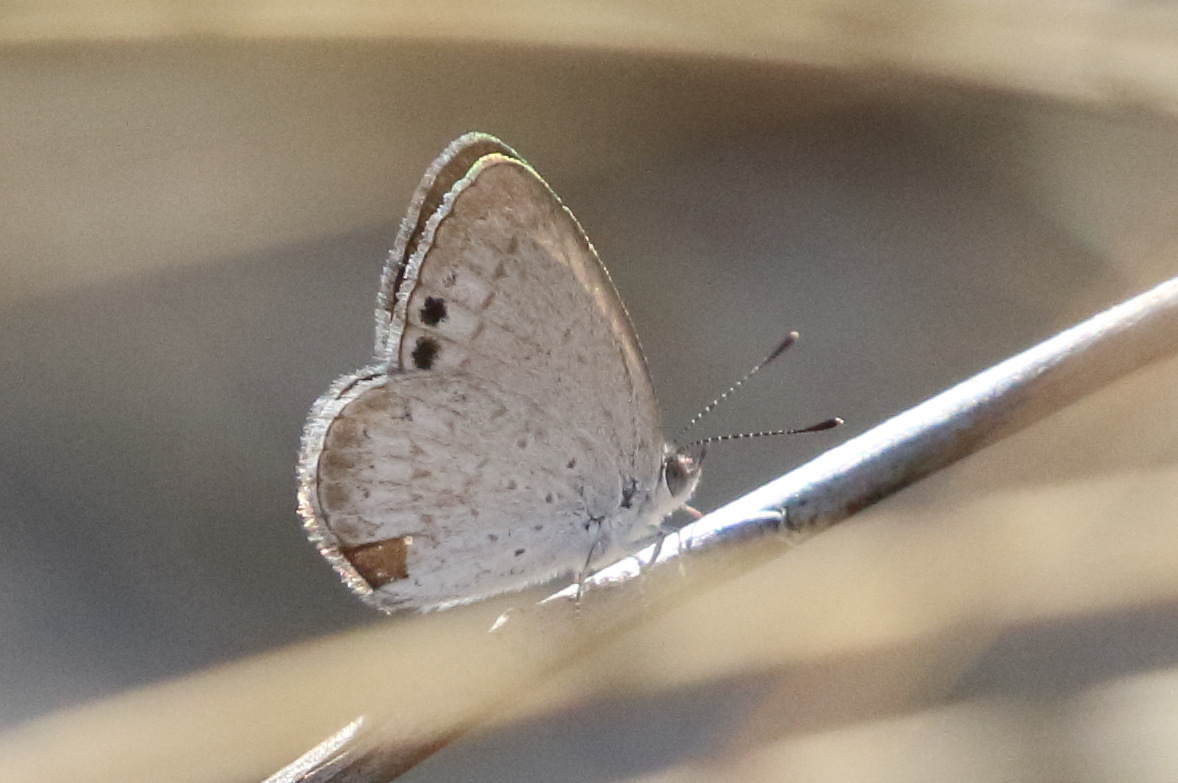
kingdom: Animalia
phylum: Arthropoda
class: Insecta
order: Lepidoptera
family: Lycaenidae
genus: Candalides
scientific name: Candalides
